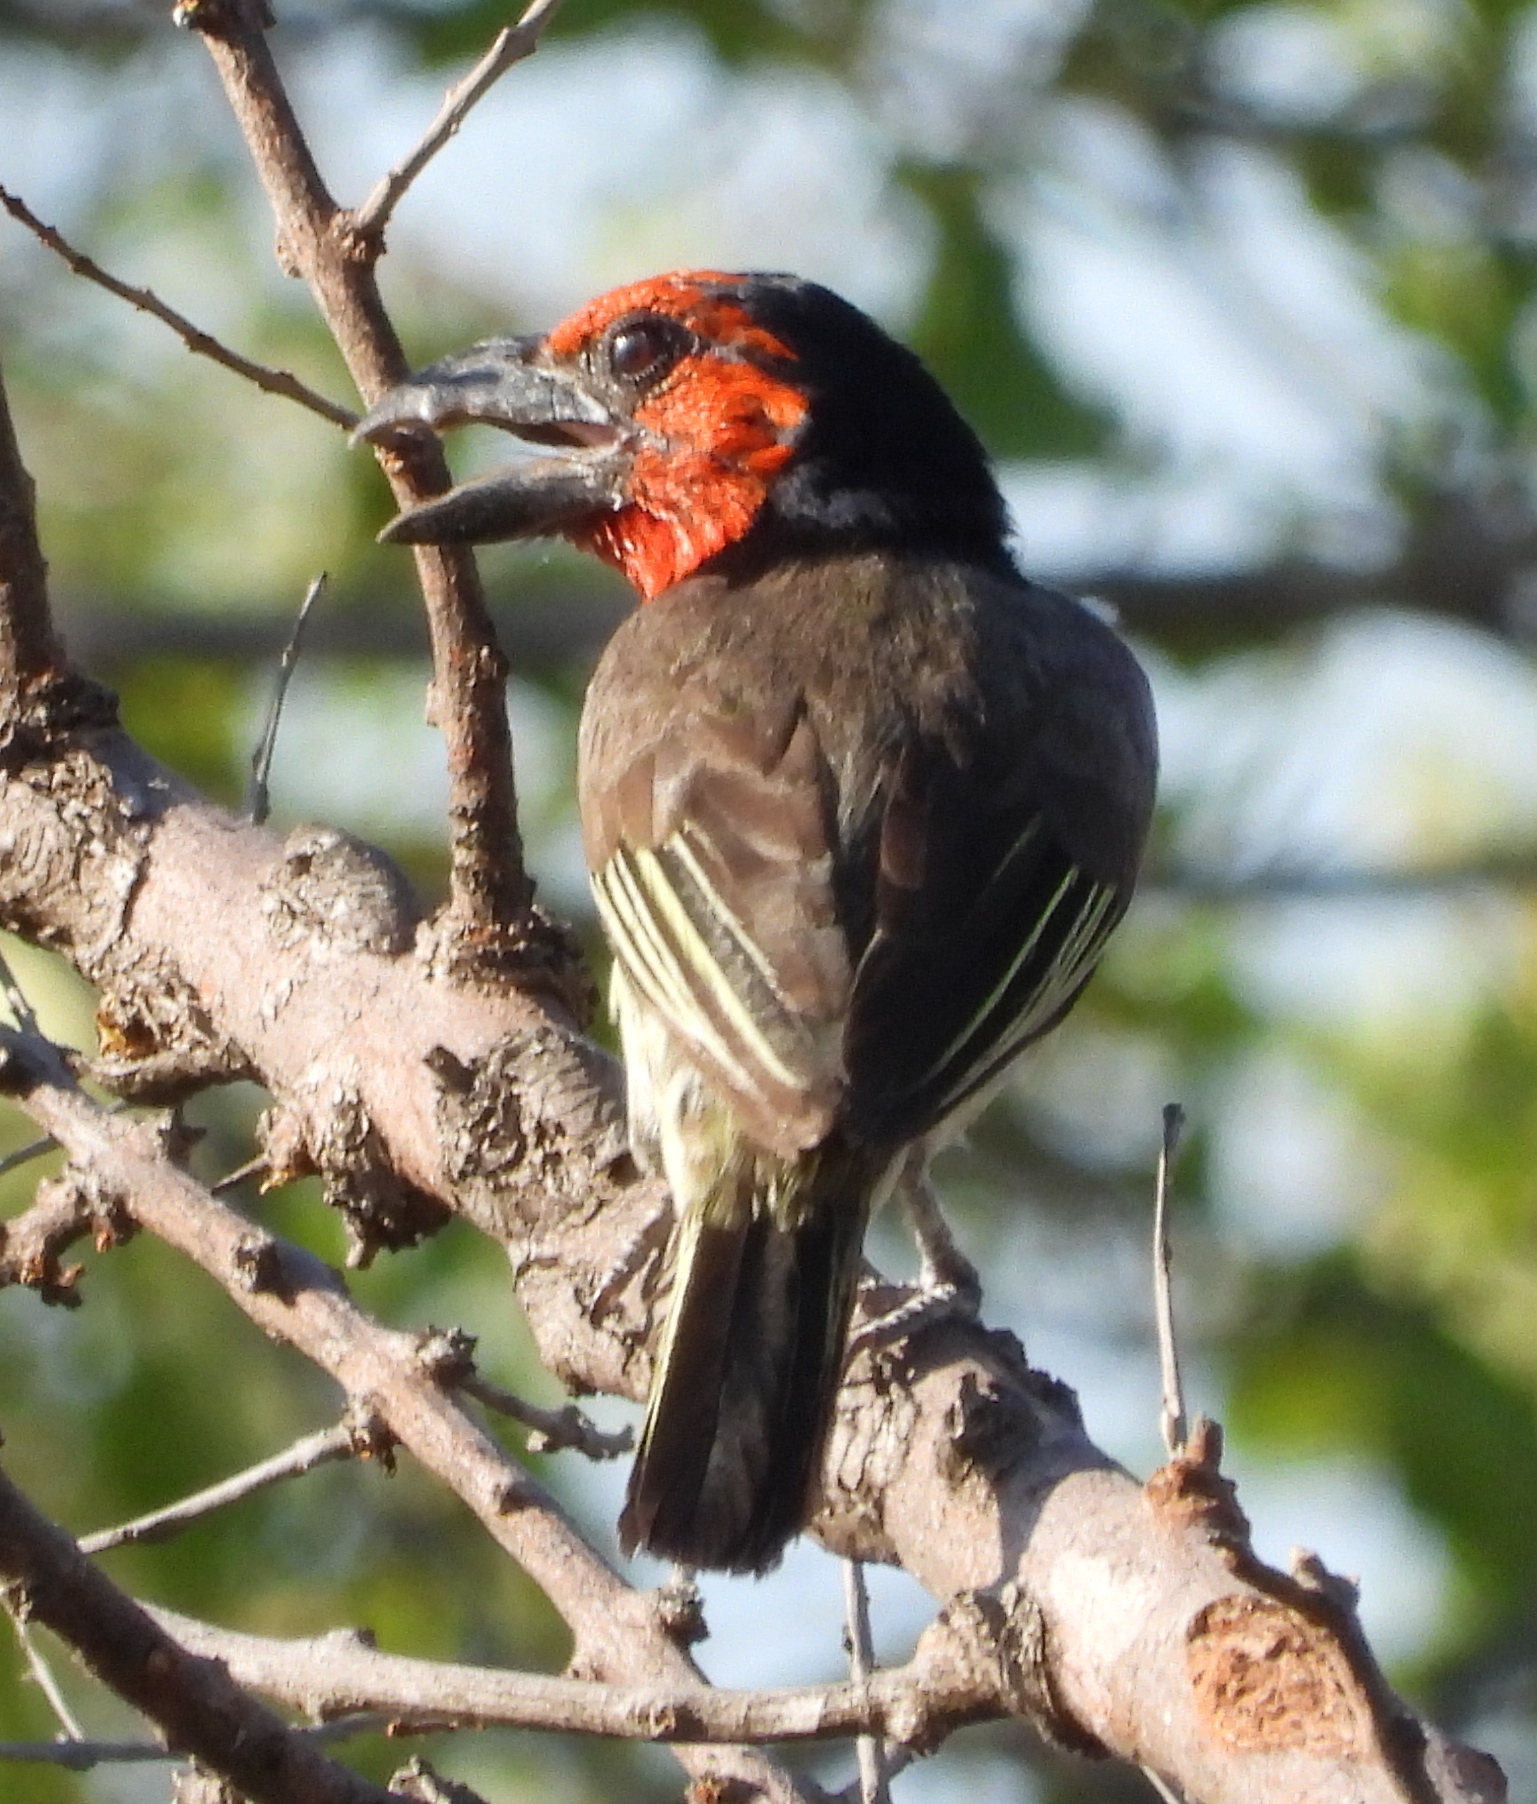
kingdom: Animalia
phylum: Chordata
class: Aves
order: Piciformes
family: Lybiidae
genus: Lybius
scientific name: Lybius torquatus
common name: Black-collared barbet
